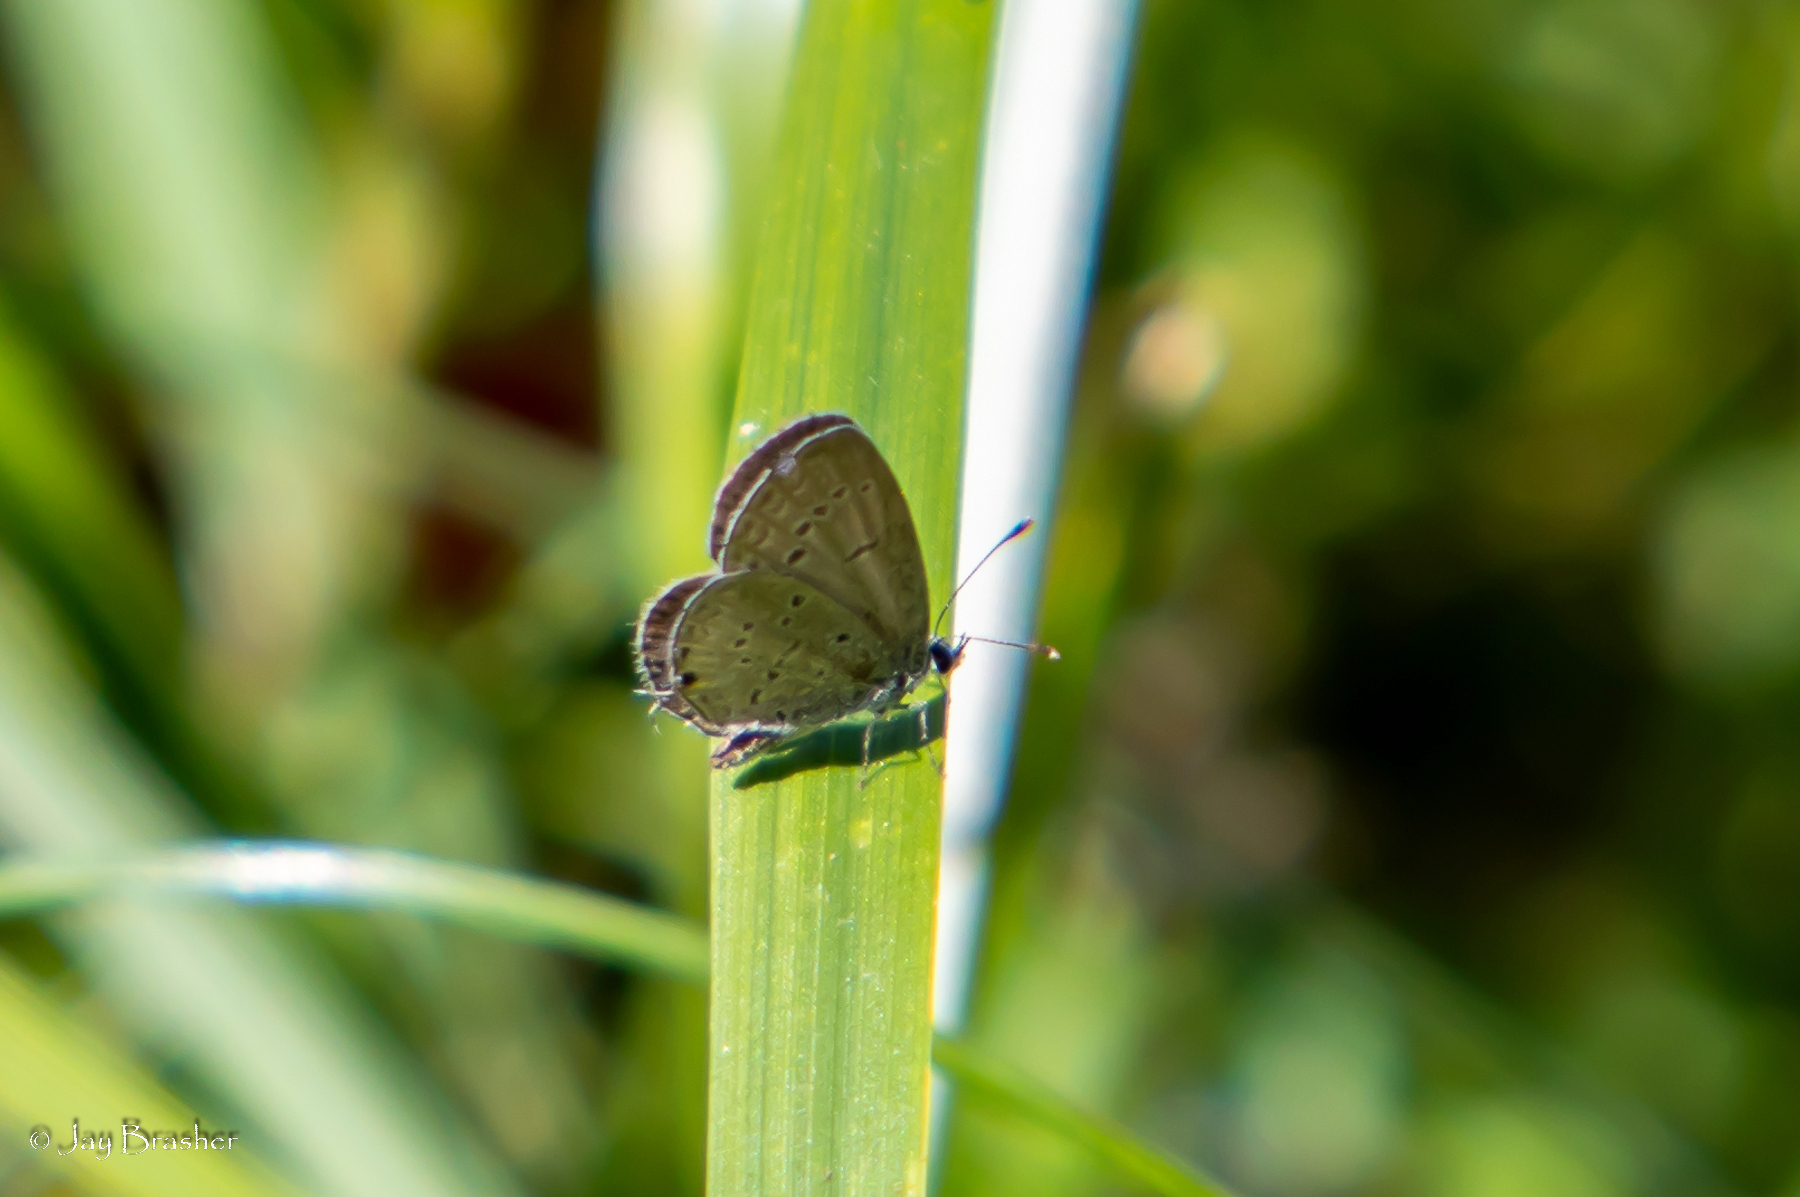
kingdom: Animalia
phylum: Arthropoda
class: Insecta
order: Lepidoptera
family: Lycaenidae
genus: Elkalyce
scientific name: Elkalyce comyntas
